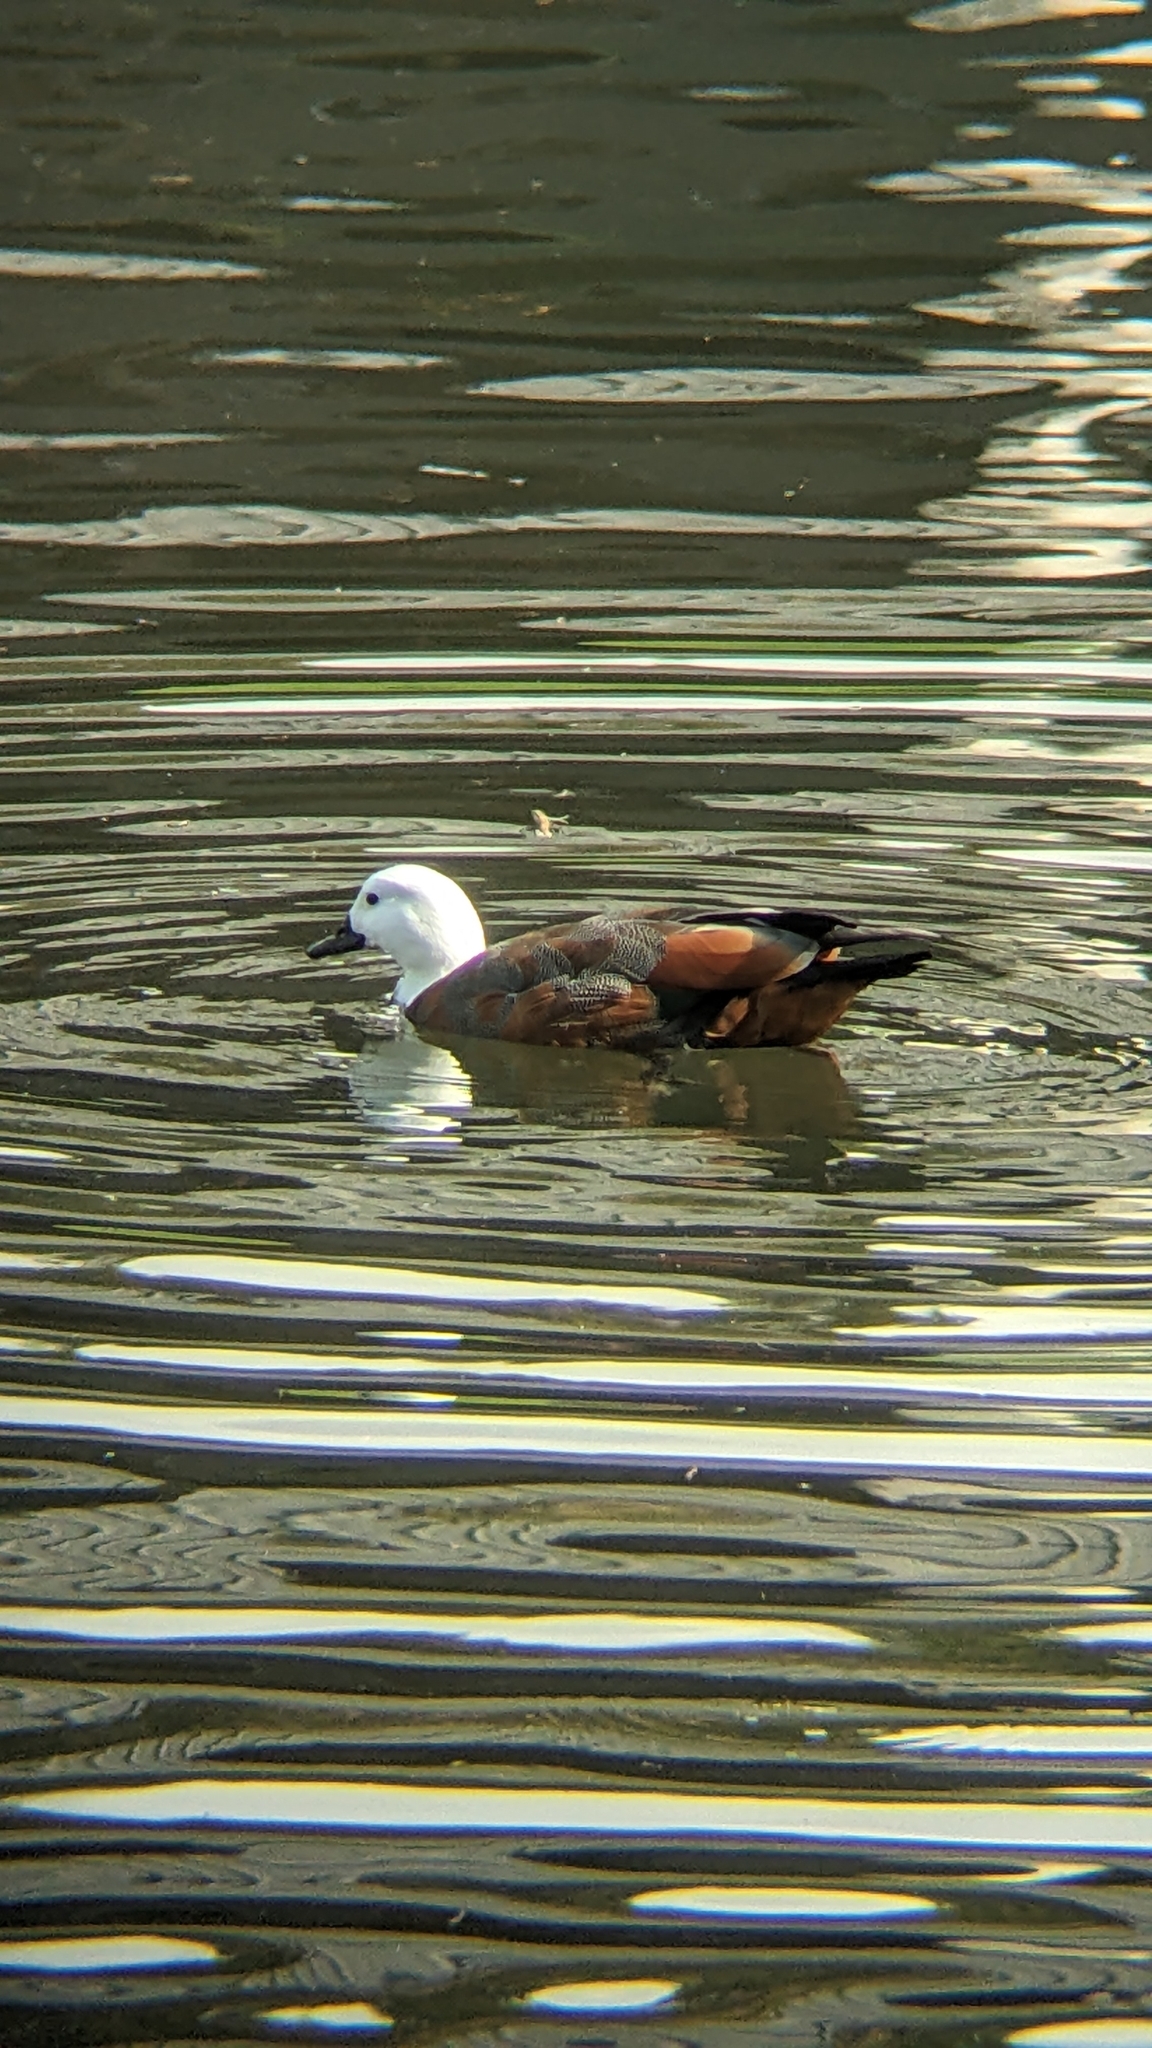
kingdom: Animalia
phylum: Chordata
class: Aves
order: Anseriformes
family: Anatidae
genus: Tadorna
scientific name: Tadorna variegata
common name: Paradise shelduck
